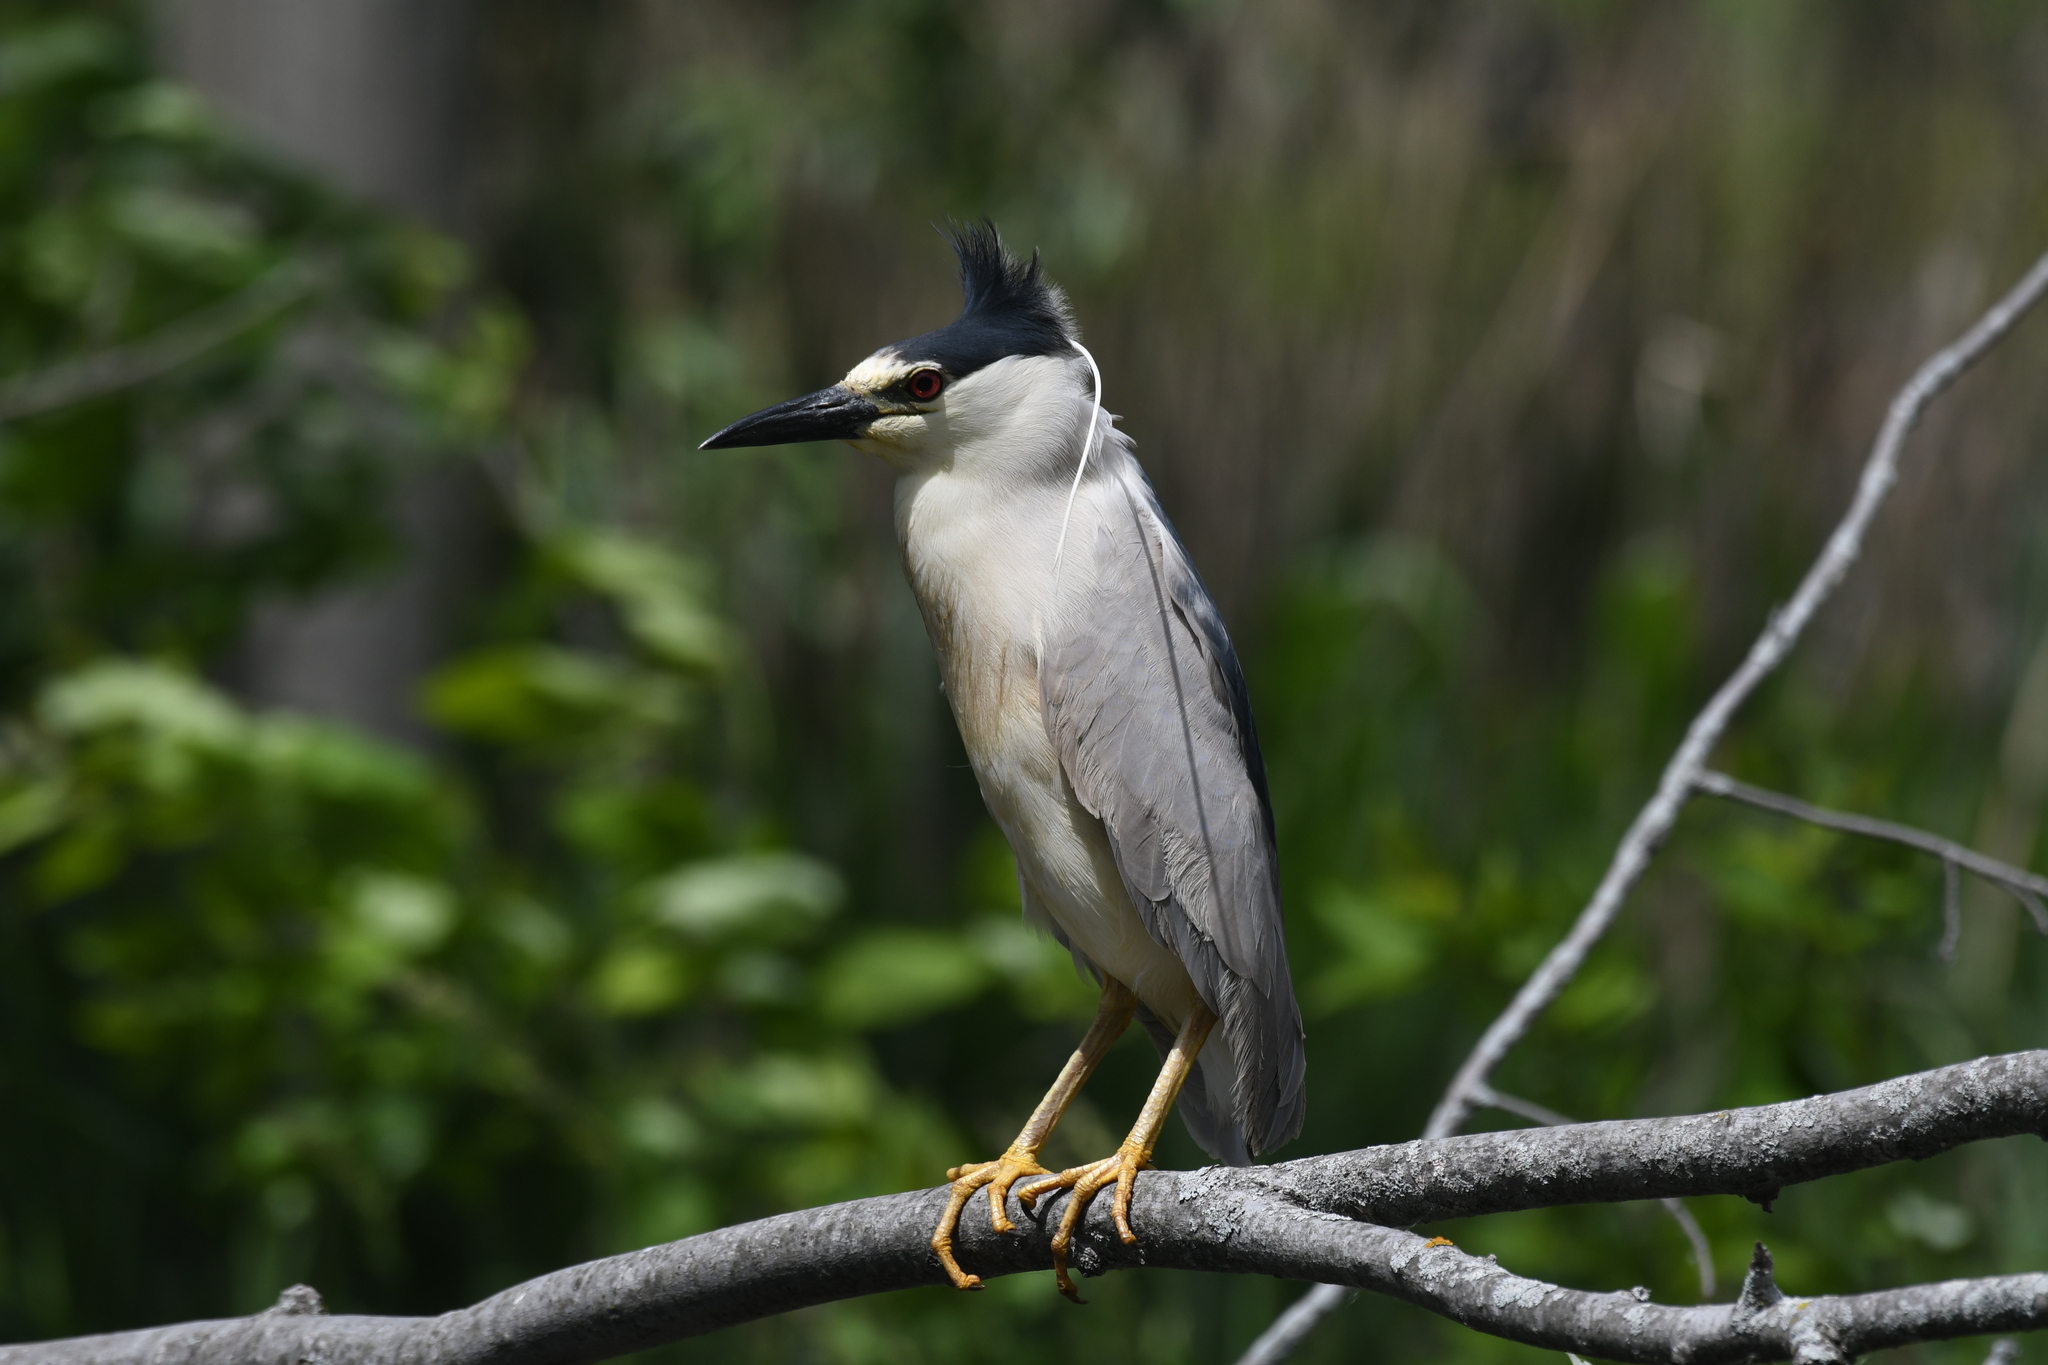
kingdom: Animalia
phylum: Chordata
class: Aves
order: Pelecaniformes
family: Ardeidae
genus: Nycticorax
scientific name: Nycticorax nycticorax
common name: Black-crowned night heron
